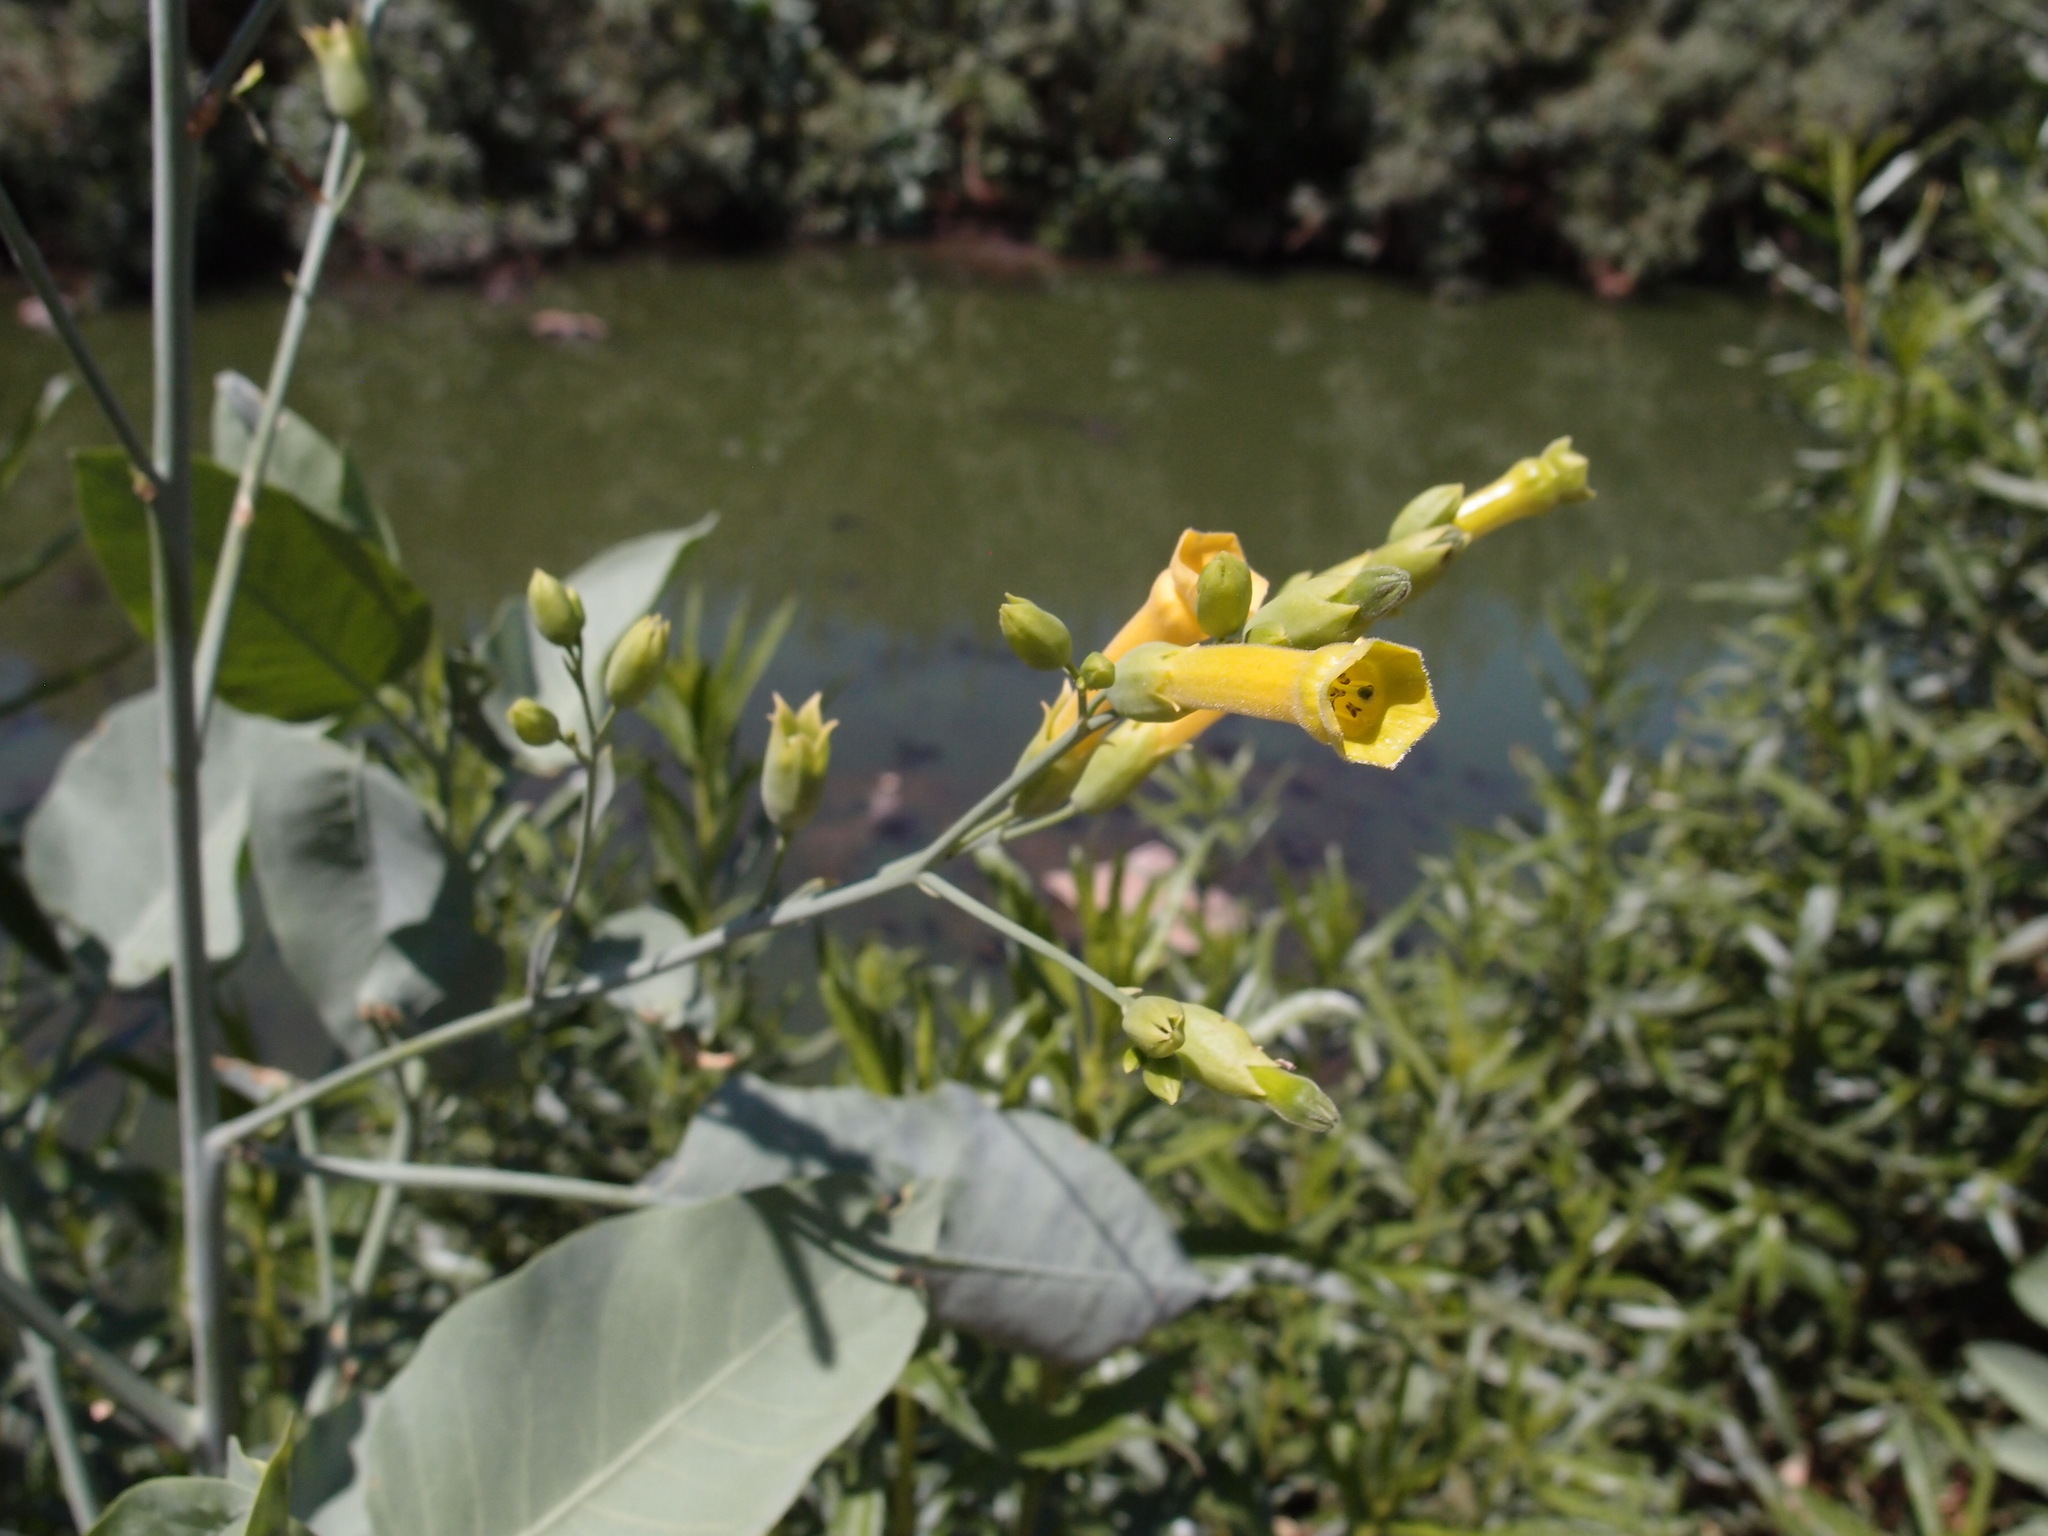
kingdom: Plantae
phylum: Tracheophyta
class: Magnoliopsida
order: Solanales
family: Solanaceae
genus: Nicotiana
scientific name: Nicotiana glauca
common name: Tree tobacco
